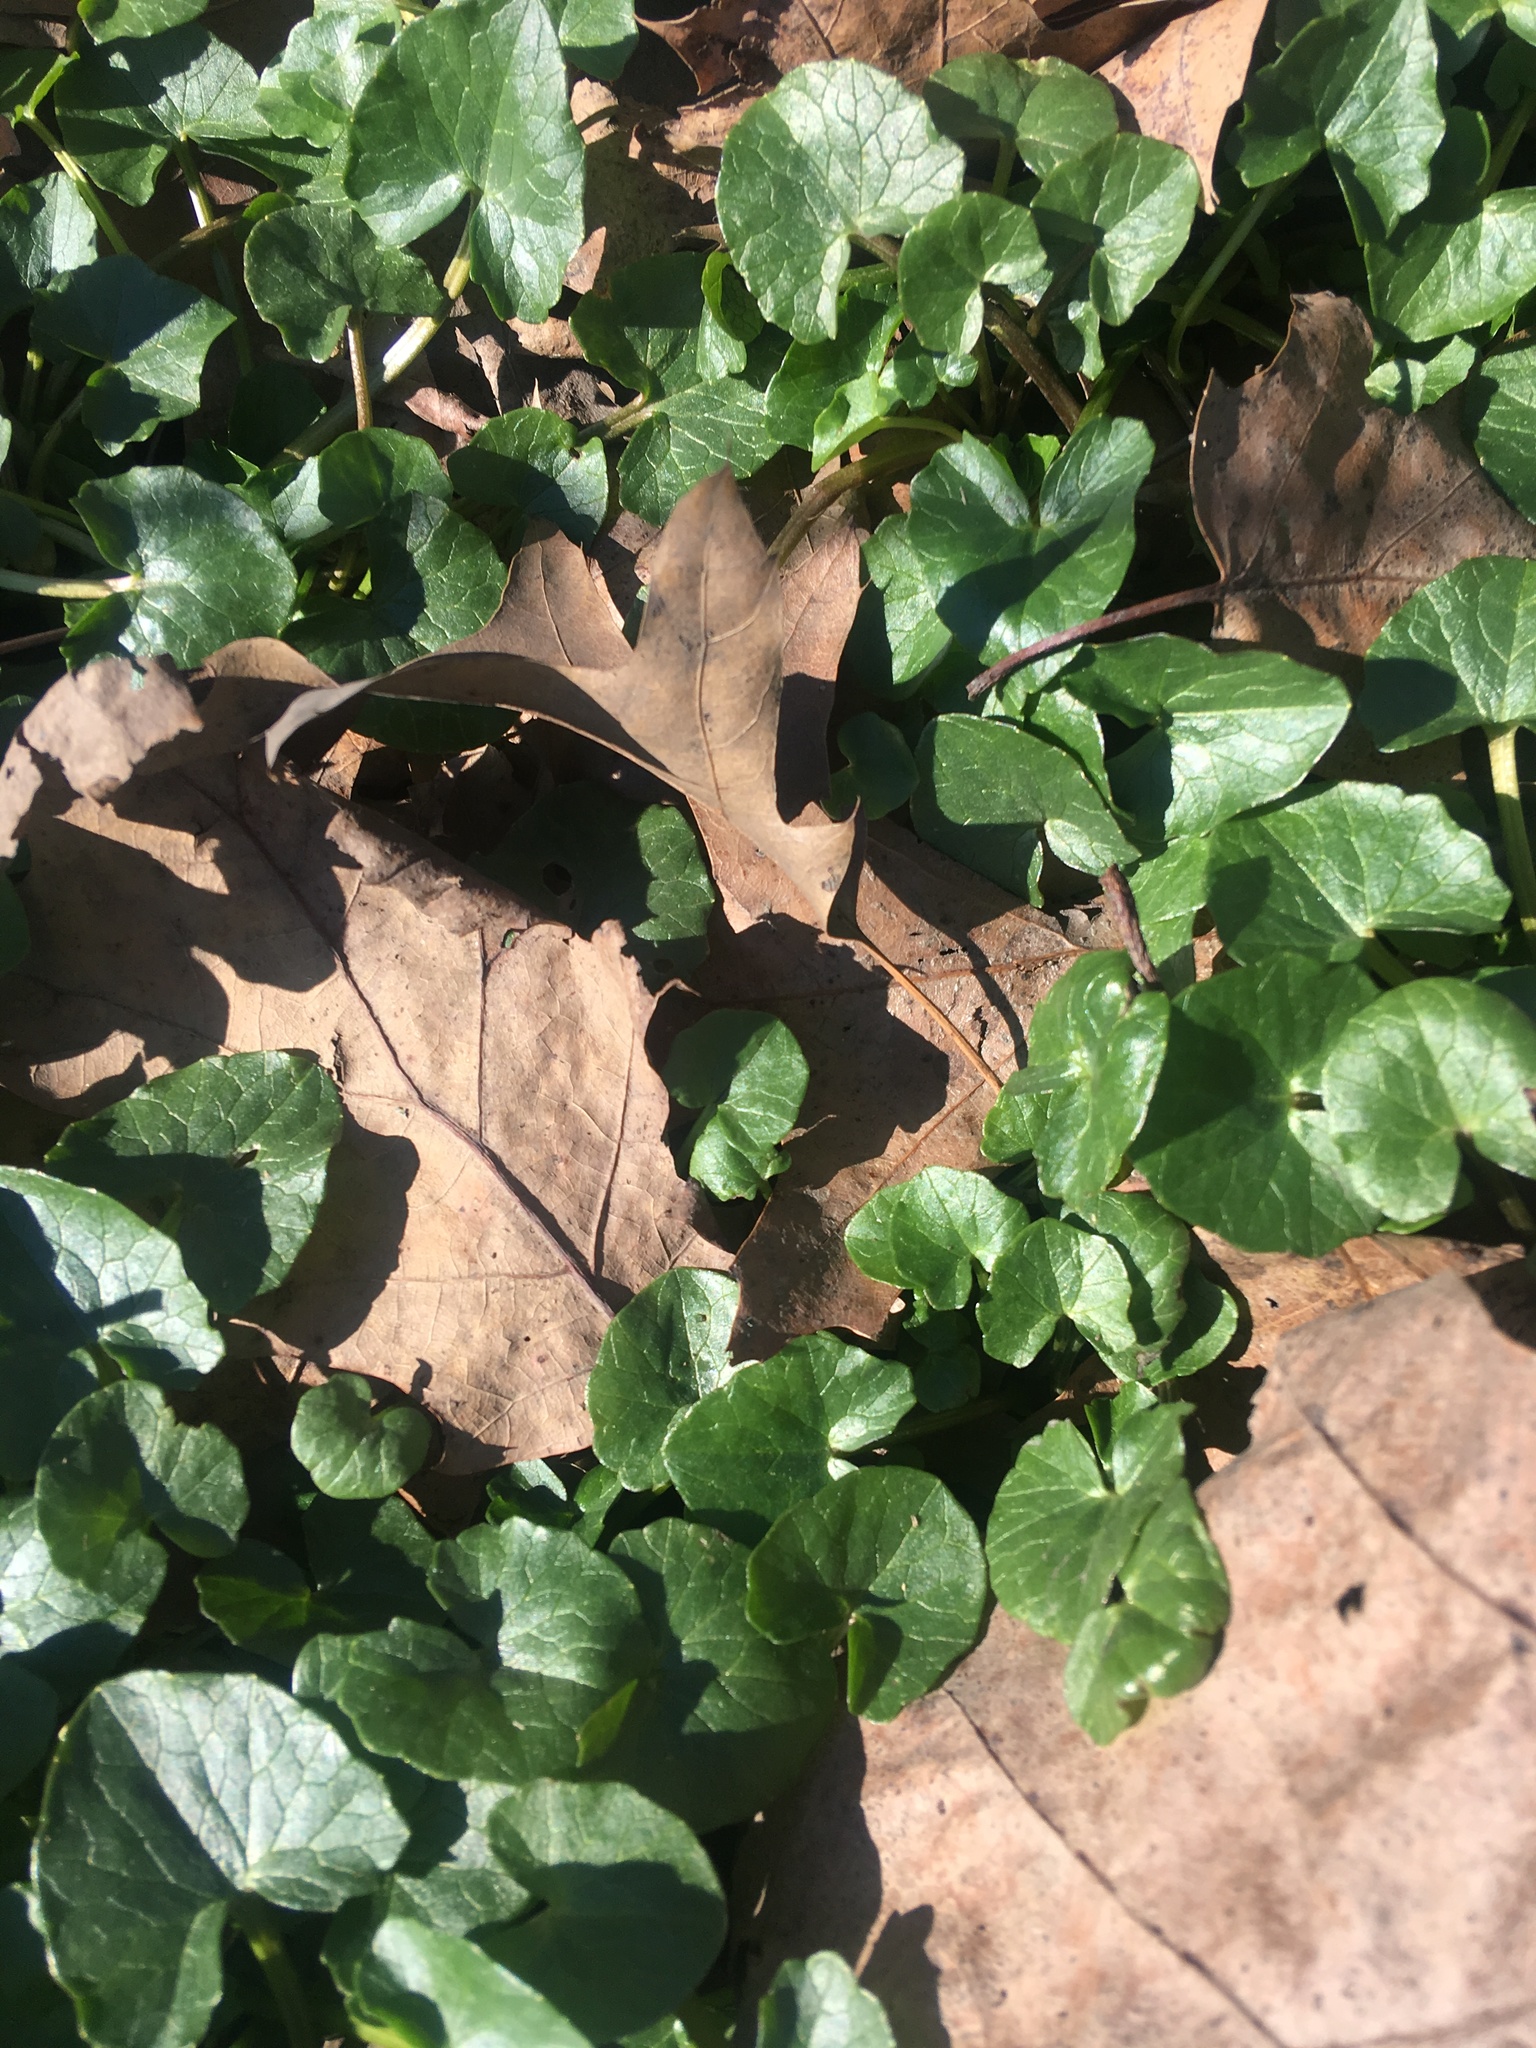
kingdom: Plantae
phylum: Tracheophyta
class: Magnoliopsida
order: Ranunculales
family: Ranunculaceae
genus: Ficaria
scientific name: Ficaria verna
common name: Lesser celandine
